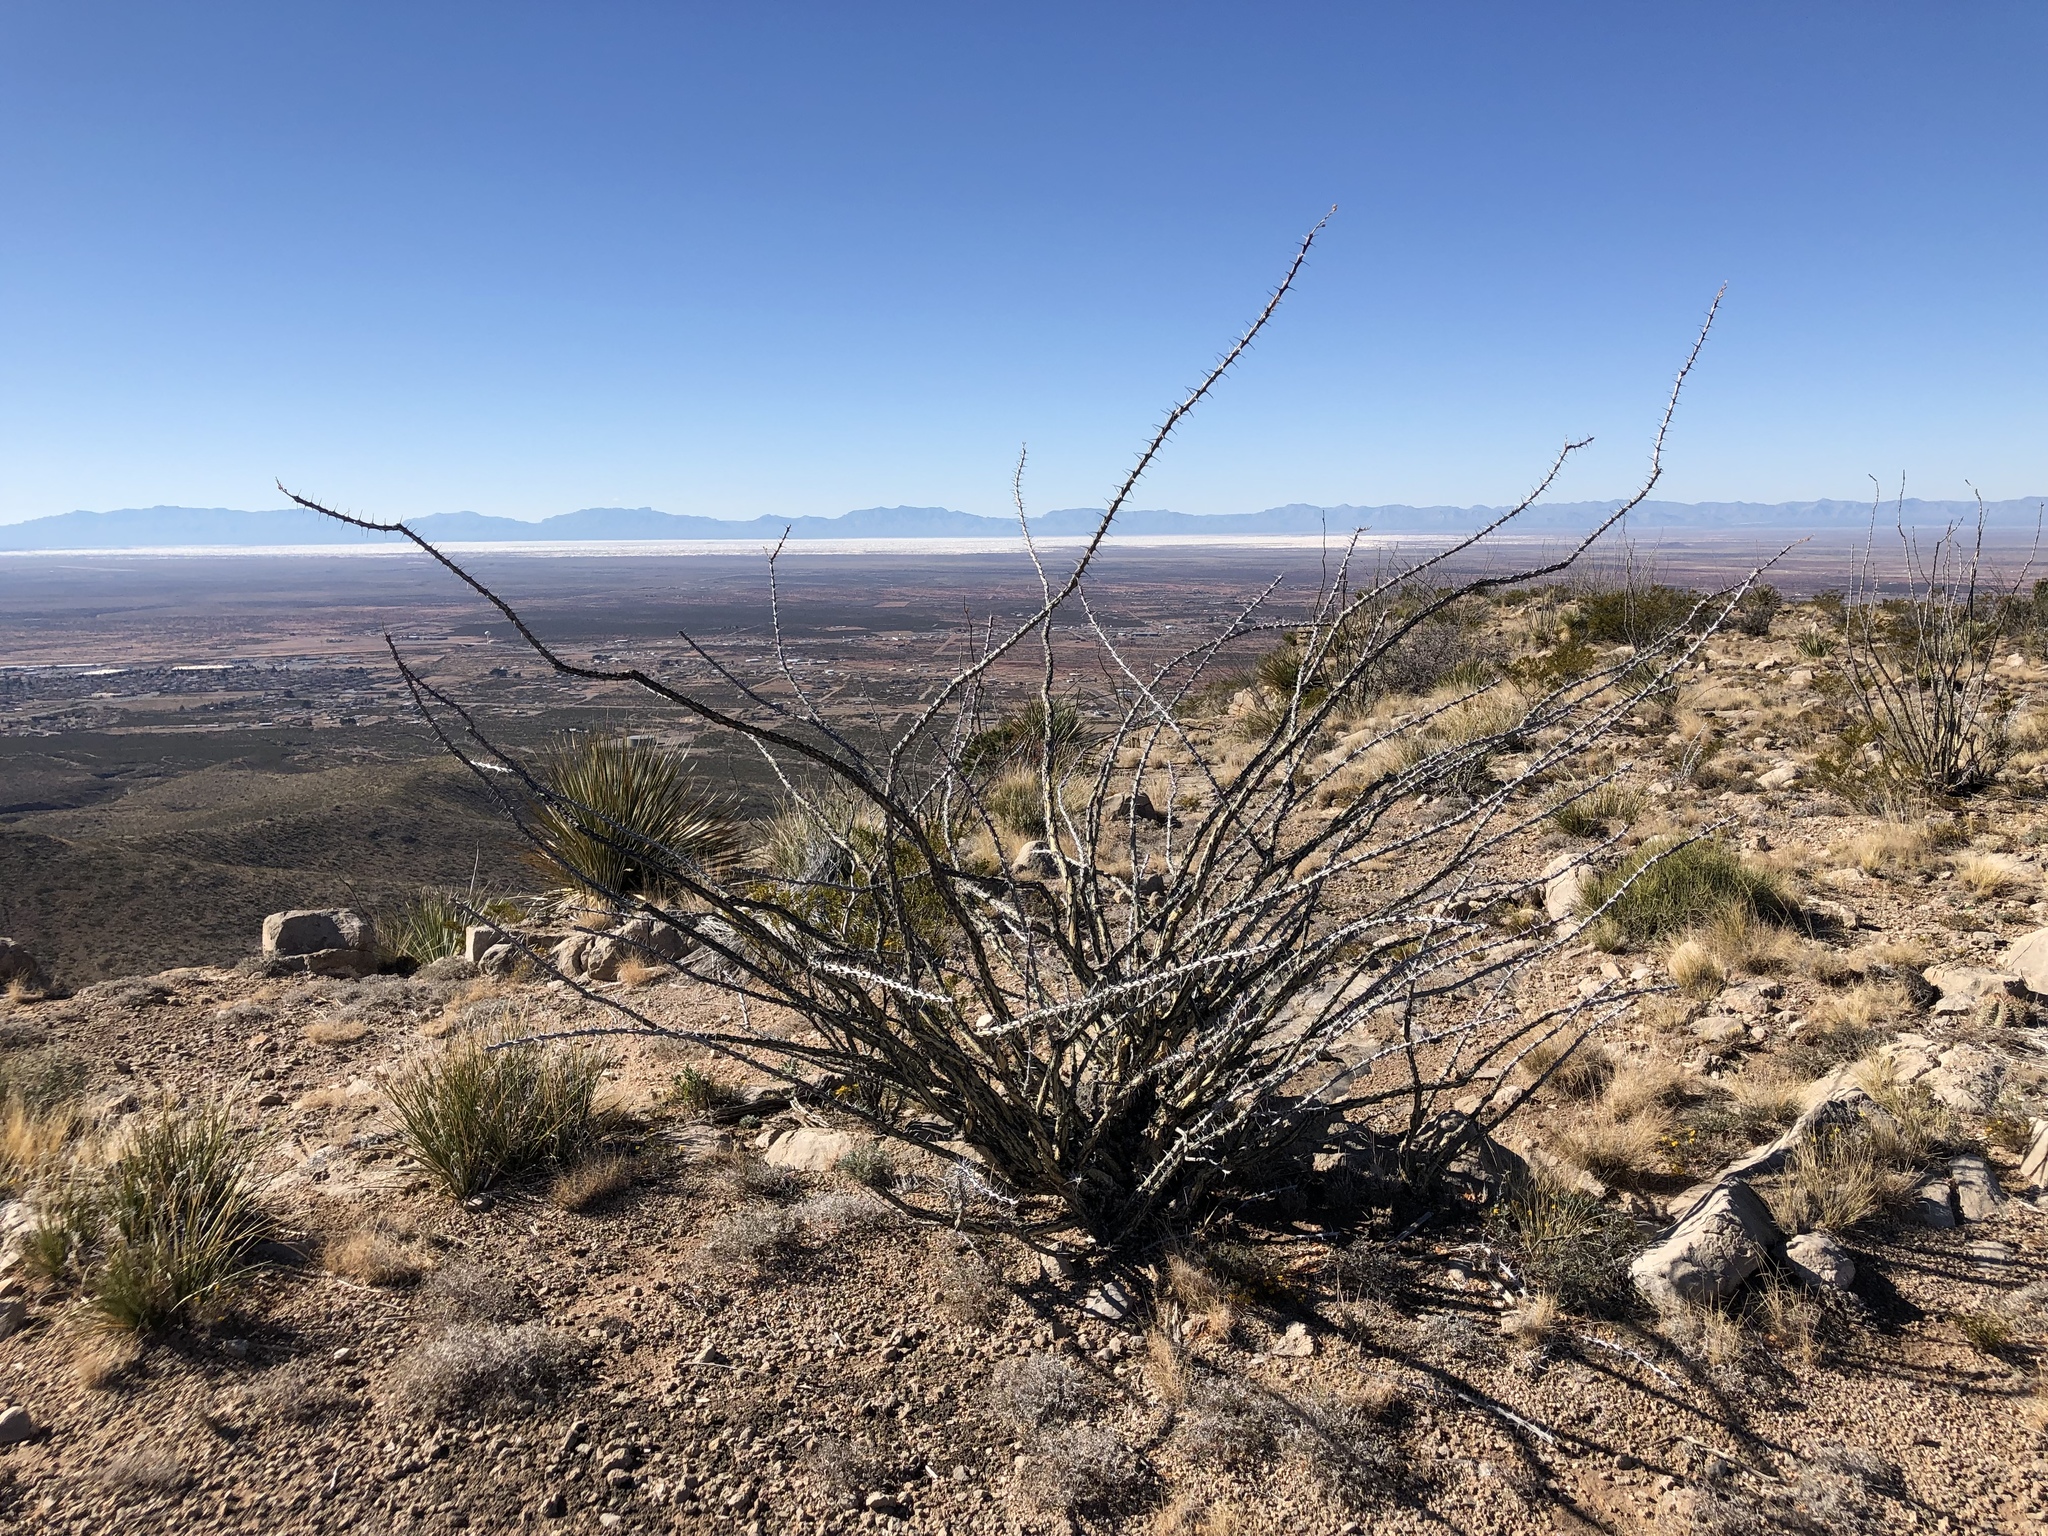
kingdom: Plantae
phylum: Tracheophyta
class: Magnoliopsida
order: Ericales
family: Fouquieriaceae
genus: Fouquieria
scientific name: Fouquieria splendens
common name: Vine-cactus
